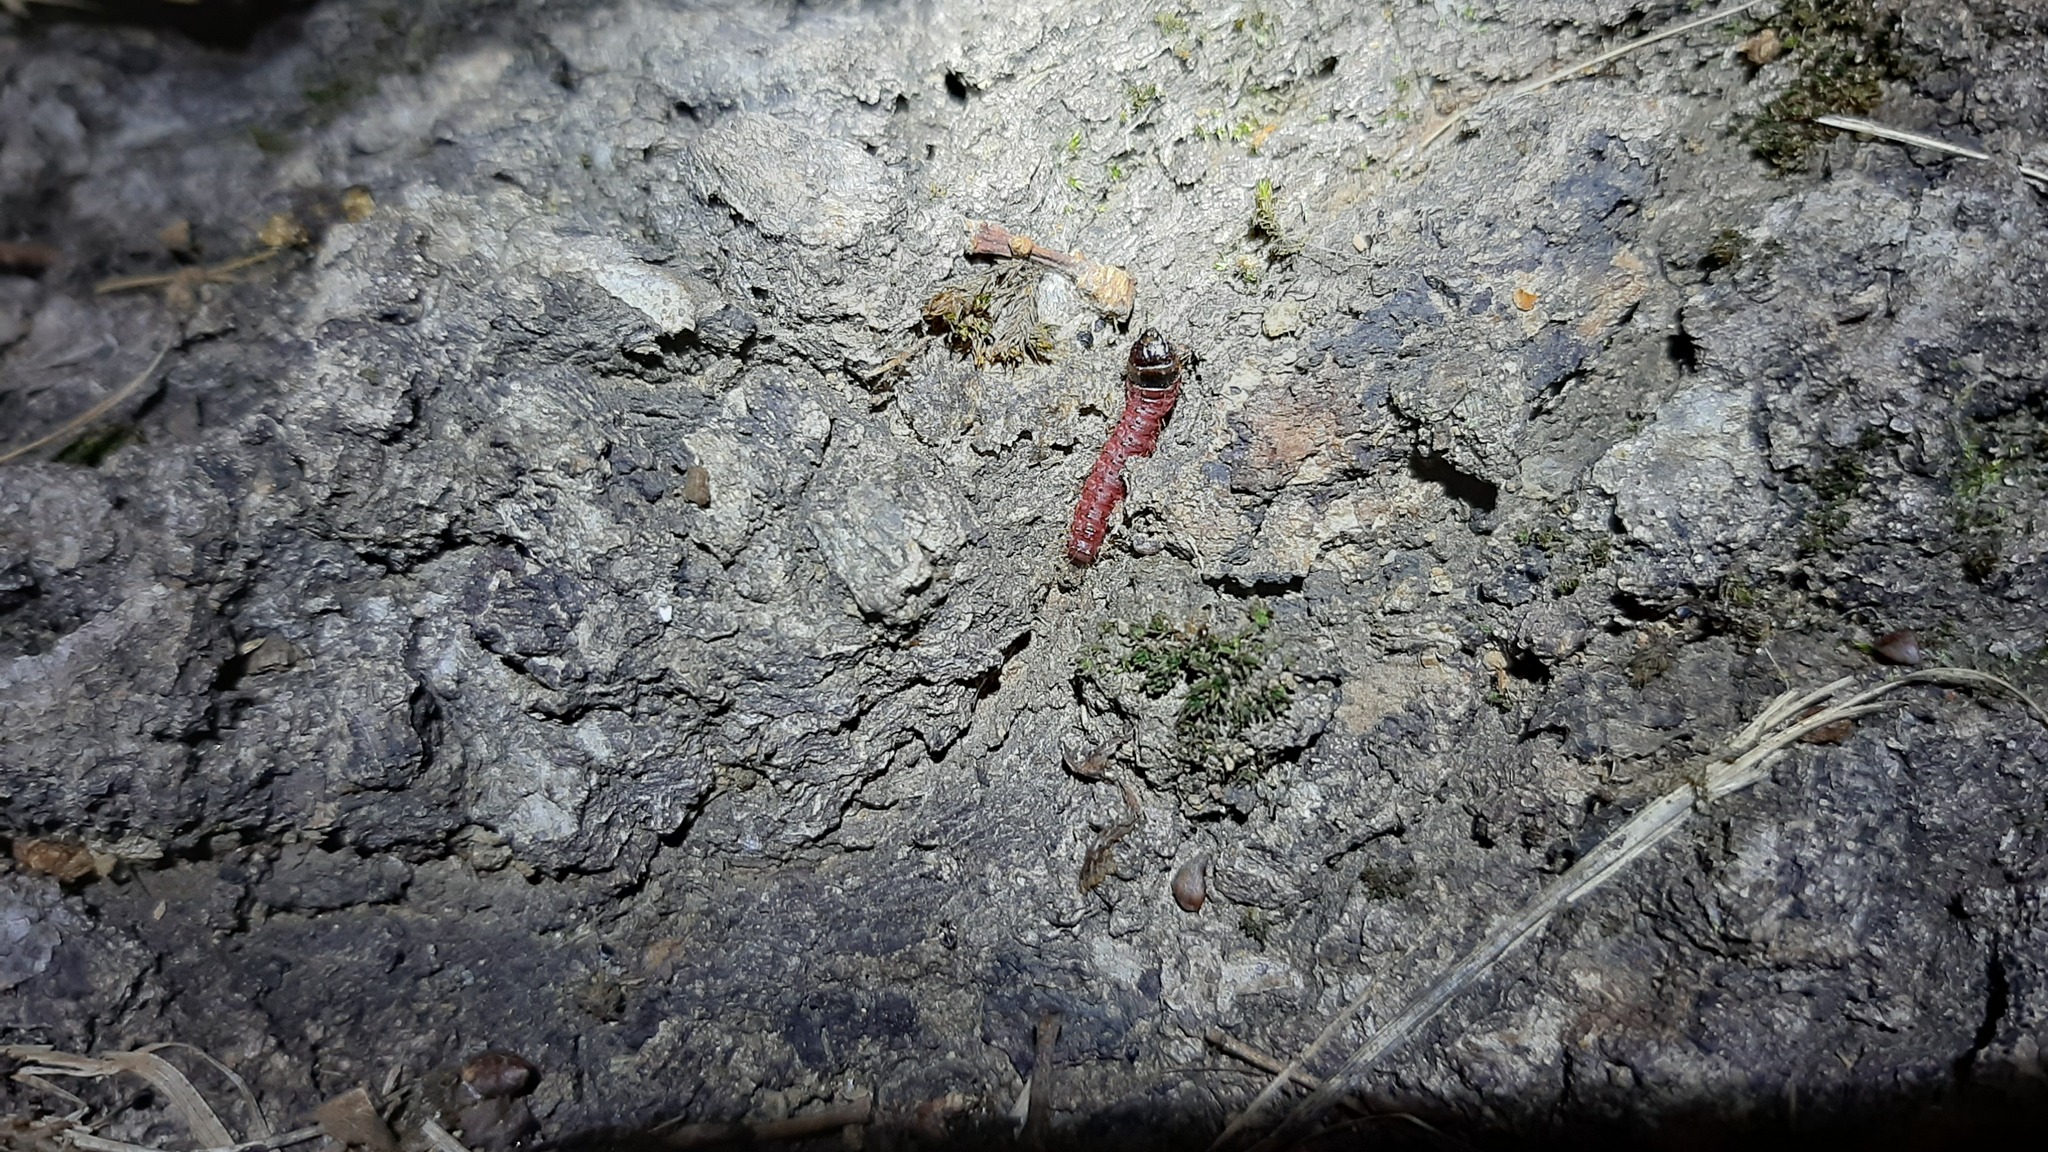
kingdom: Animalia
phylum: Arthropoda
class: Insecta
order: Lepidoptera
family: Cossidae
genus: Cossus
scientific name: Cossus cossus
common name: Goat moth
